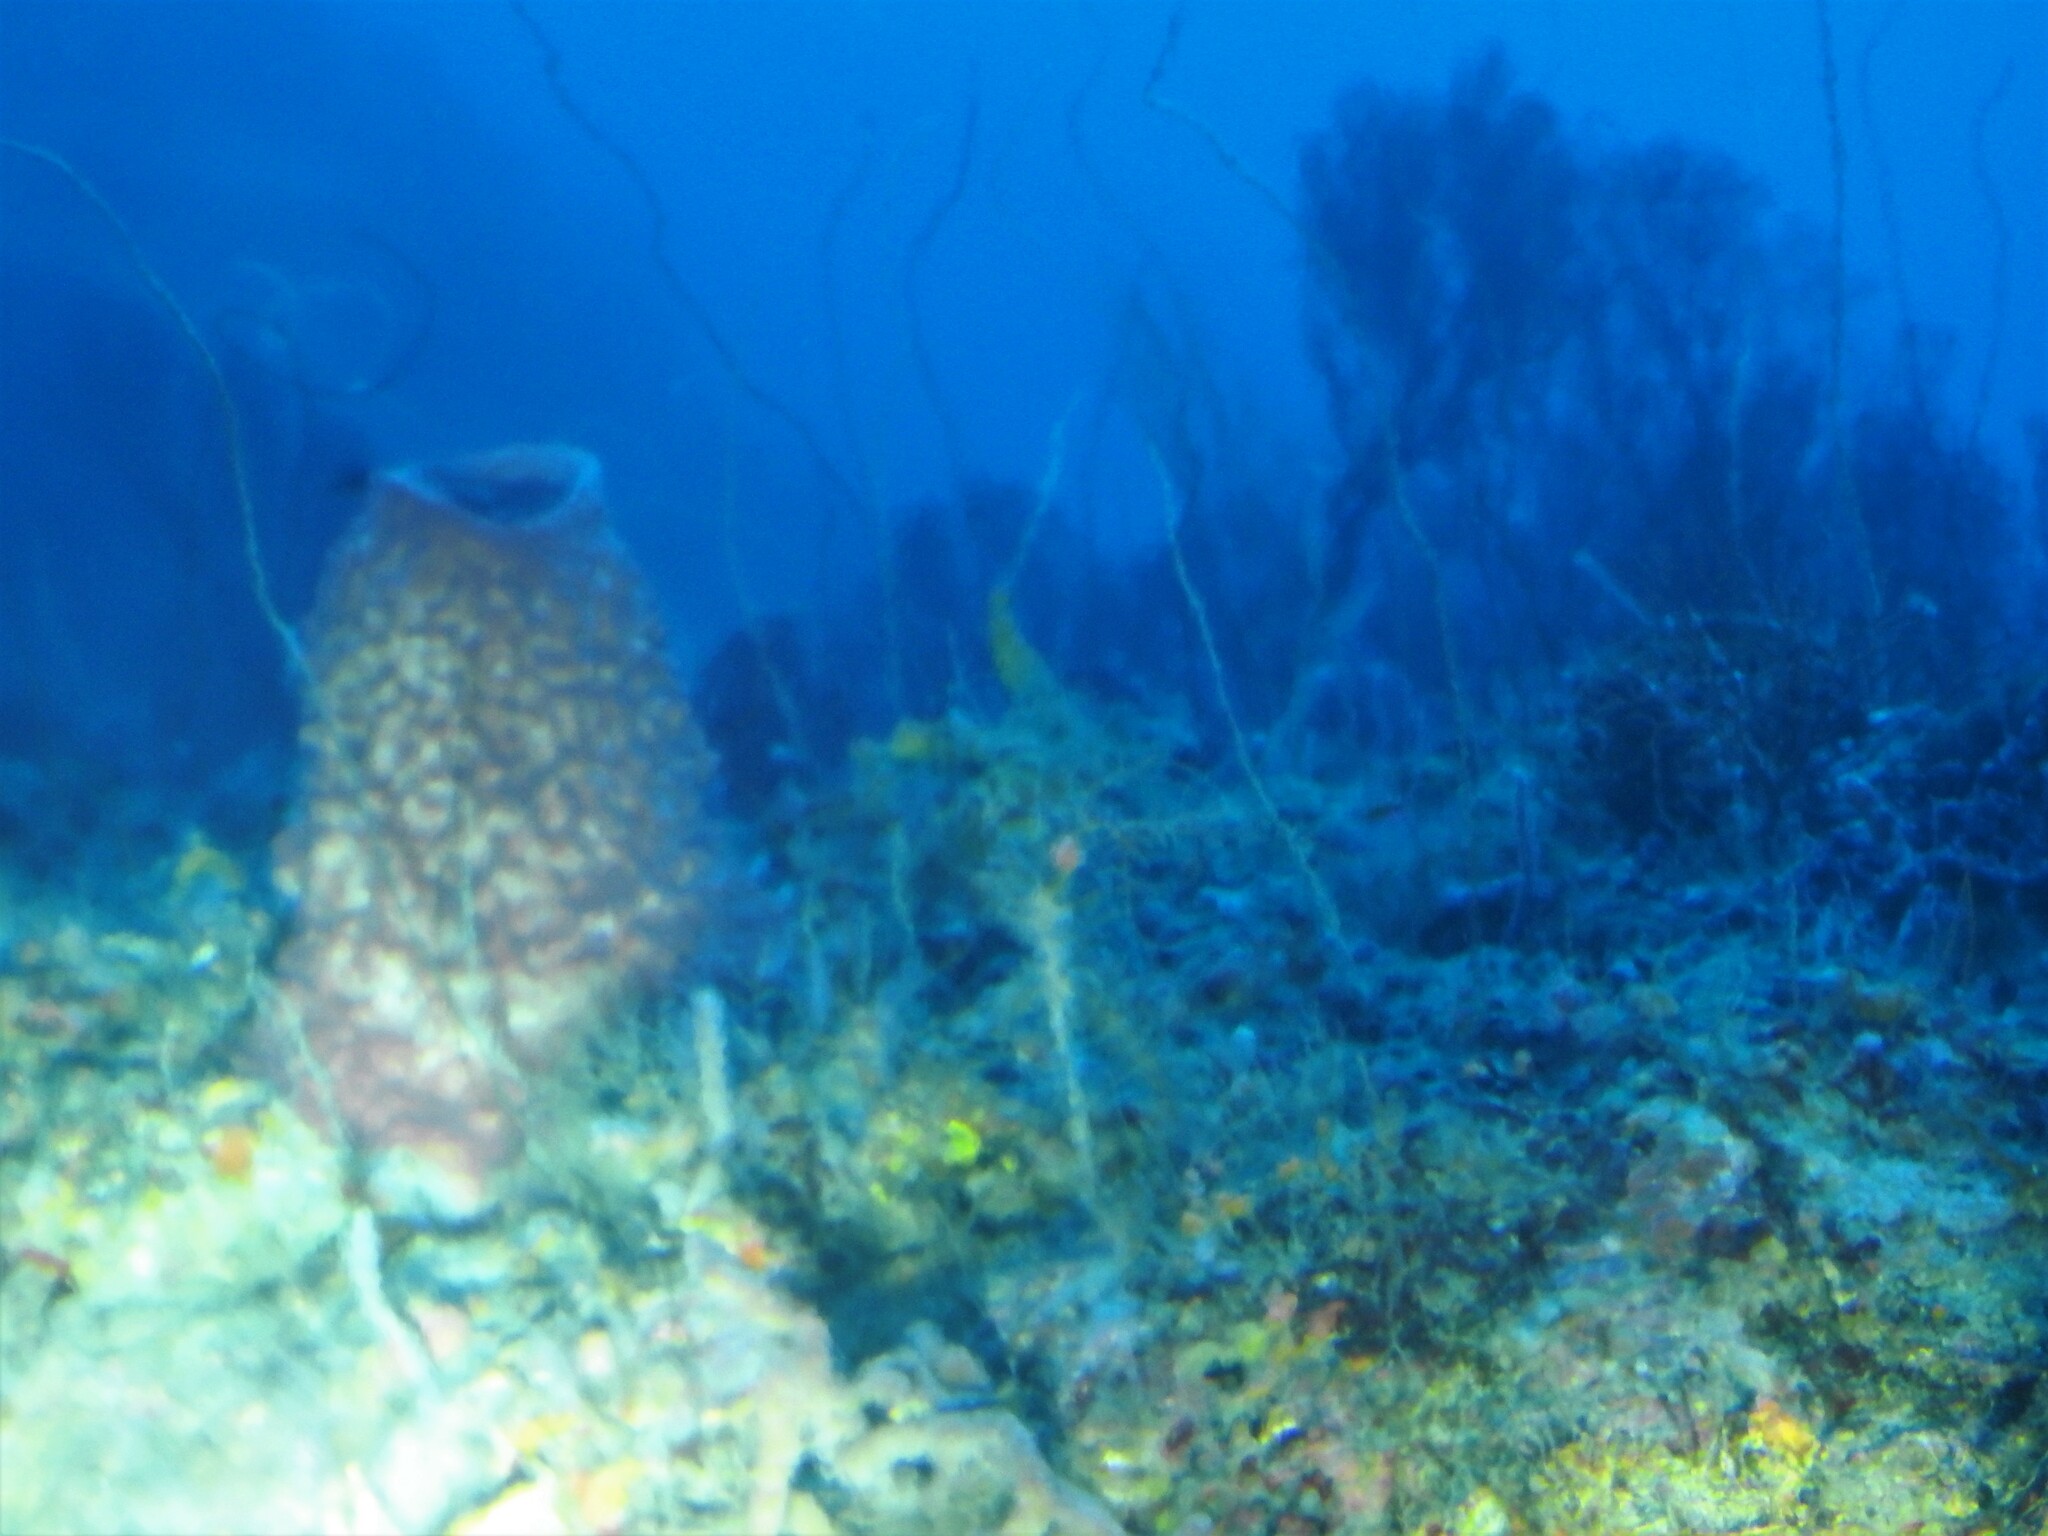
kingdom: Animalia
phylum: Porifera
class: Demospongiae
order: Haplosclerida
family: Petrosiidae
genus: Xestospongia
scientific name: Xestospongia muta
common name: Giant barrel sponge
